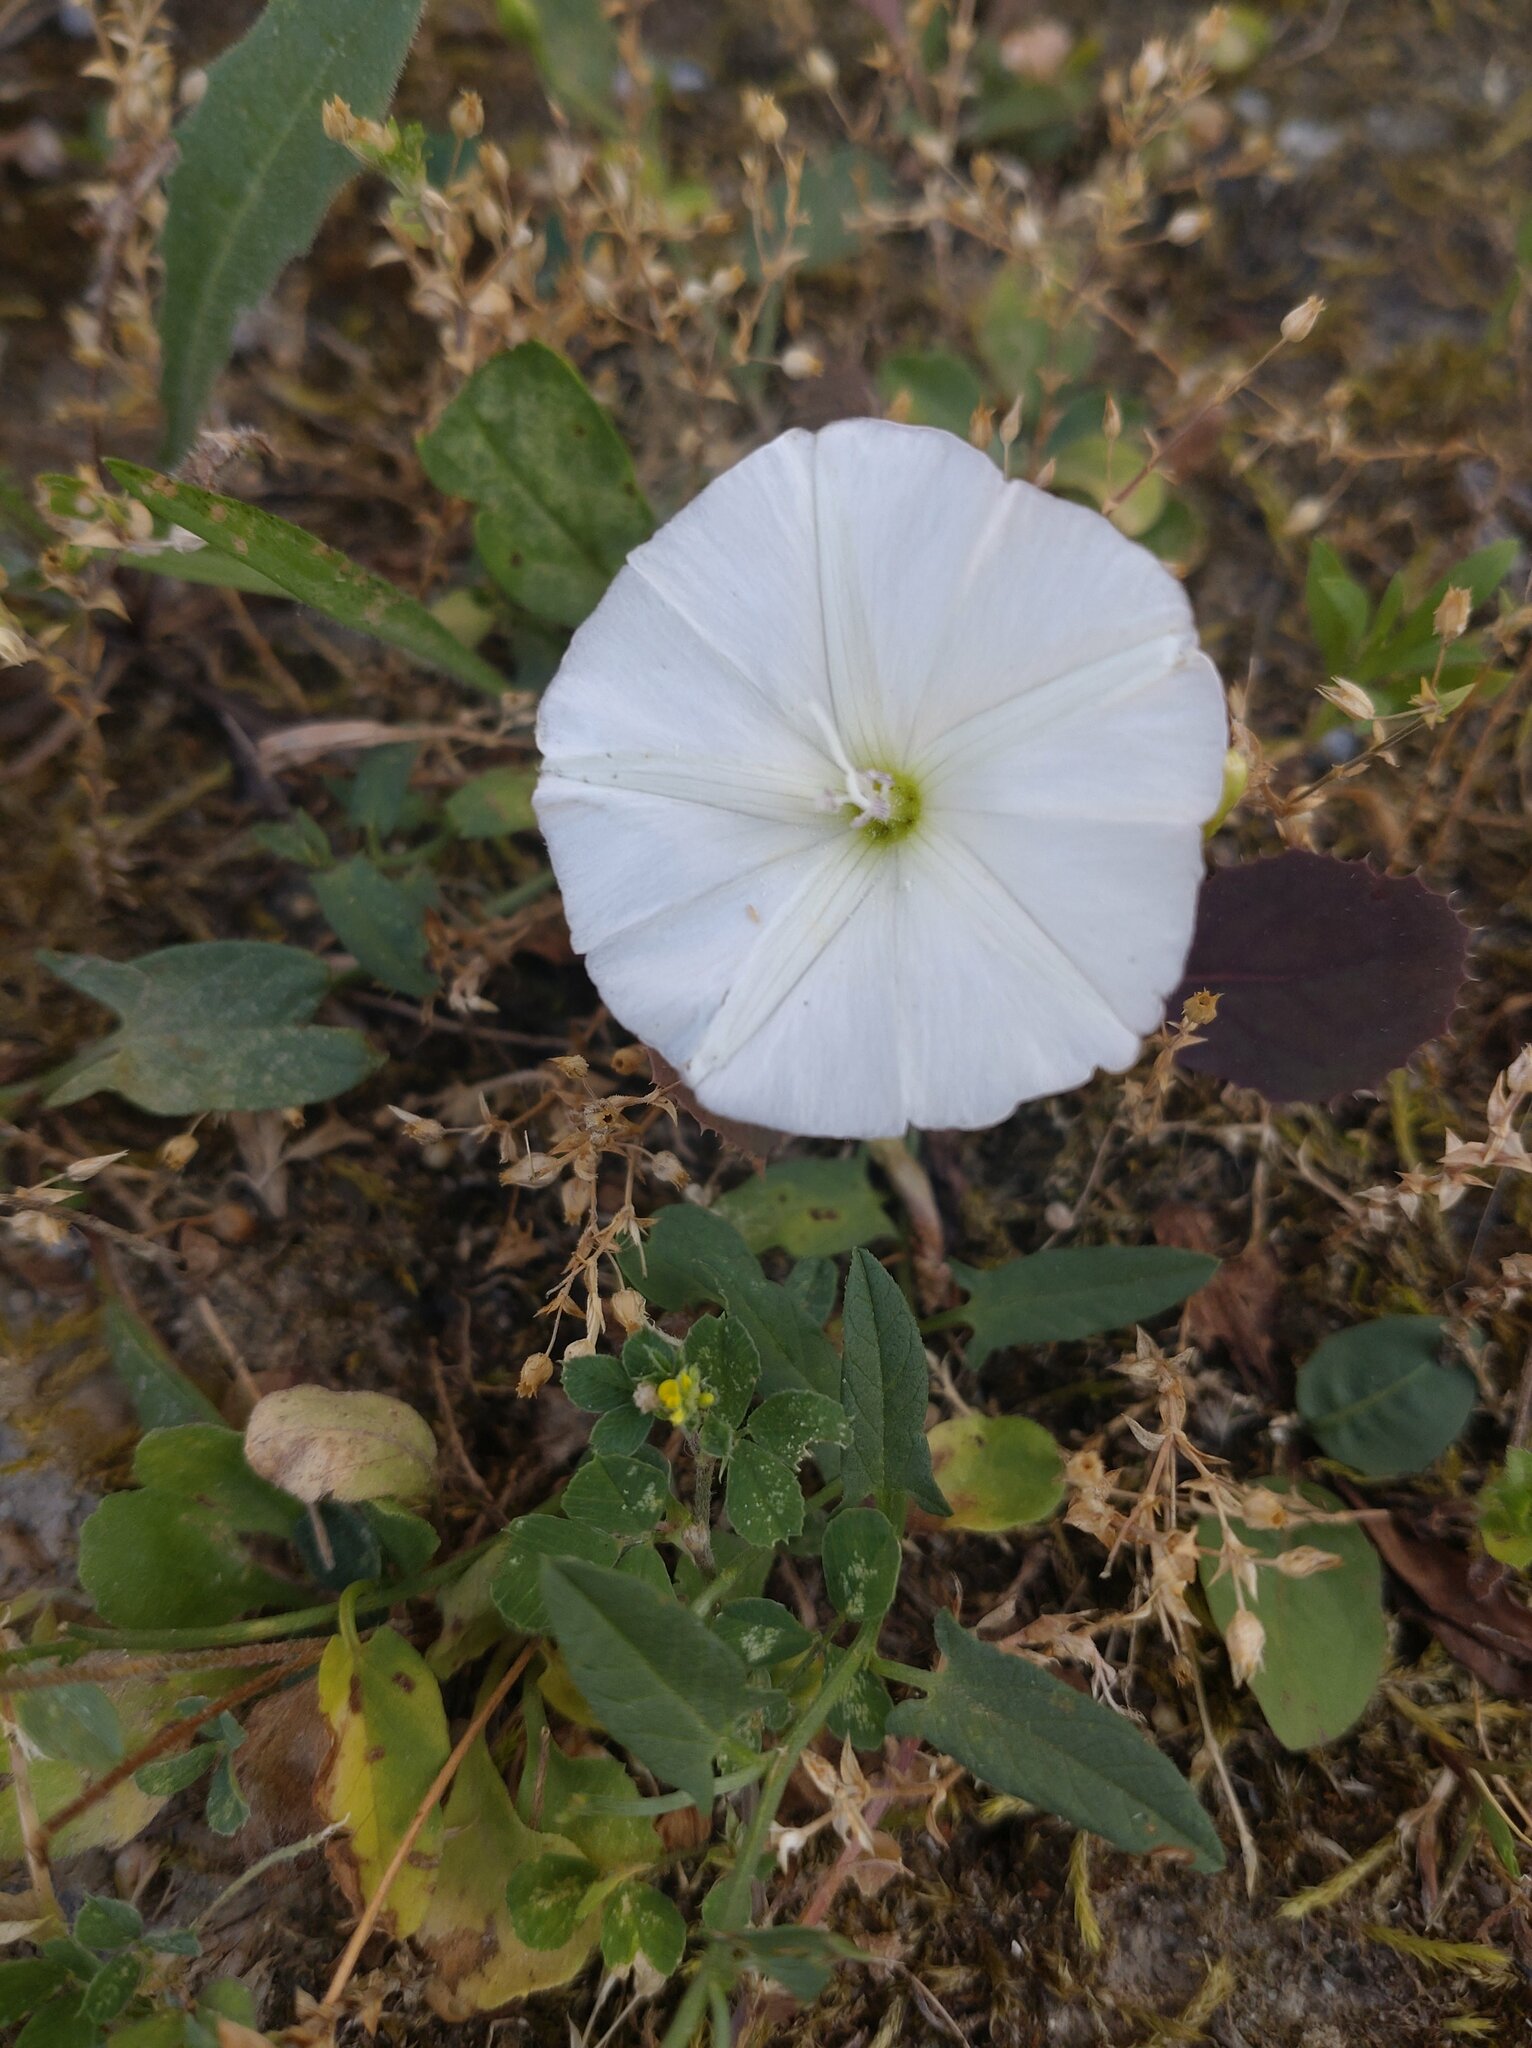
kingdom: Plantae
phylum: Tracheophyta
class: Magnoliopsida
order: Solanales
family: Convolvulaceae
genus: Convolvulus
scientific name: Convolvulus arvensis
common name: Field bindweed
